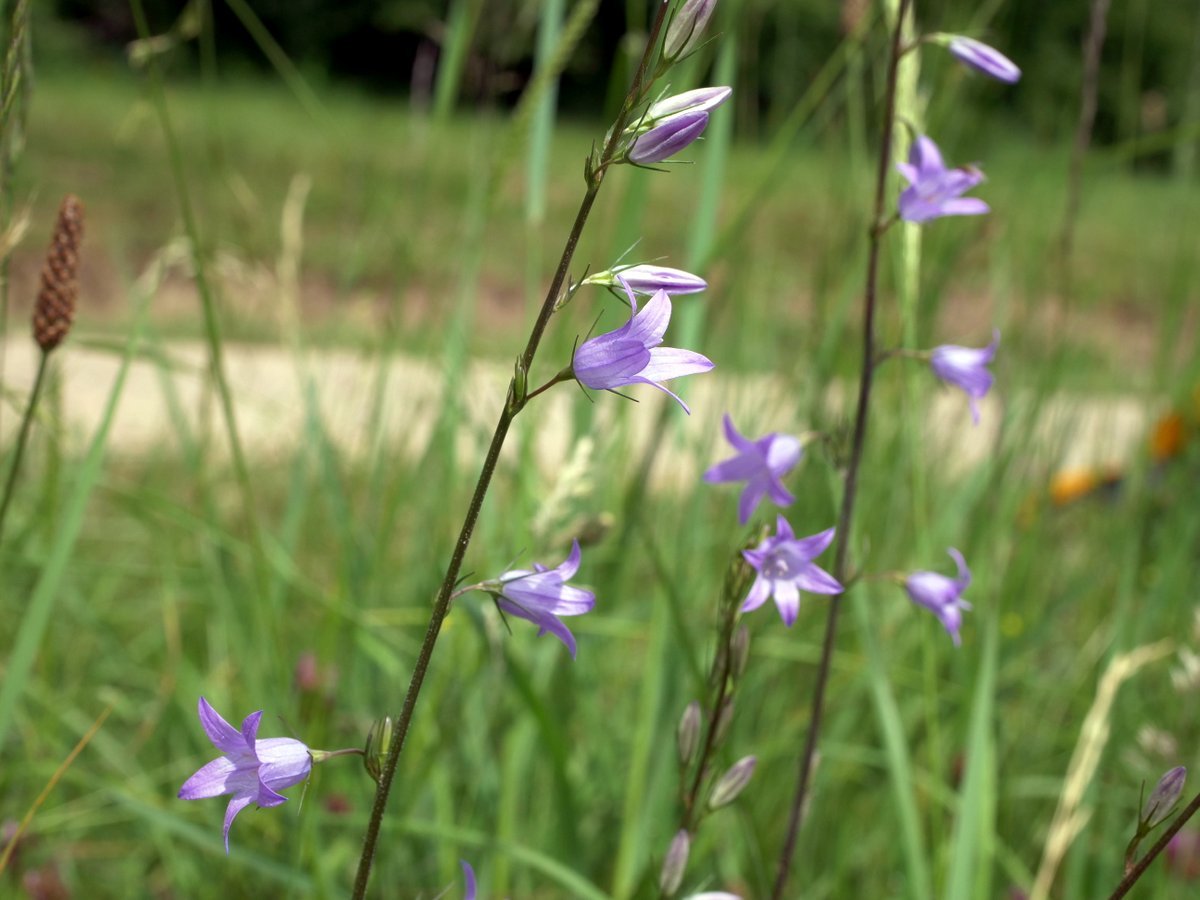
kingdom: Plantae
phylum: Tracheophyta
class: Magnoliopsida
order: Asterales
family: Campanulaceae
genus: Campanula
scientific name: Campanula rapunculus
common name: Rampion bellflower
